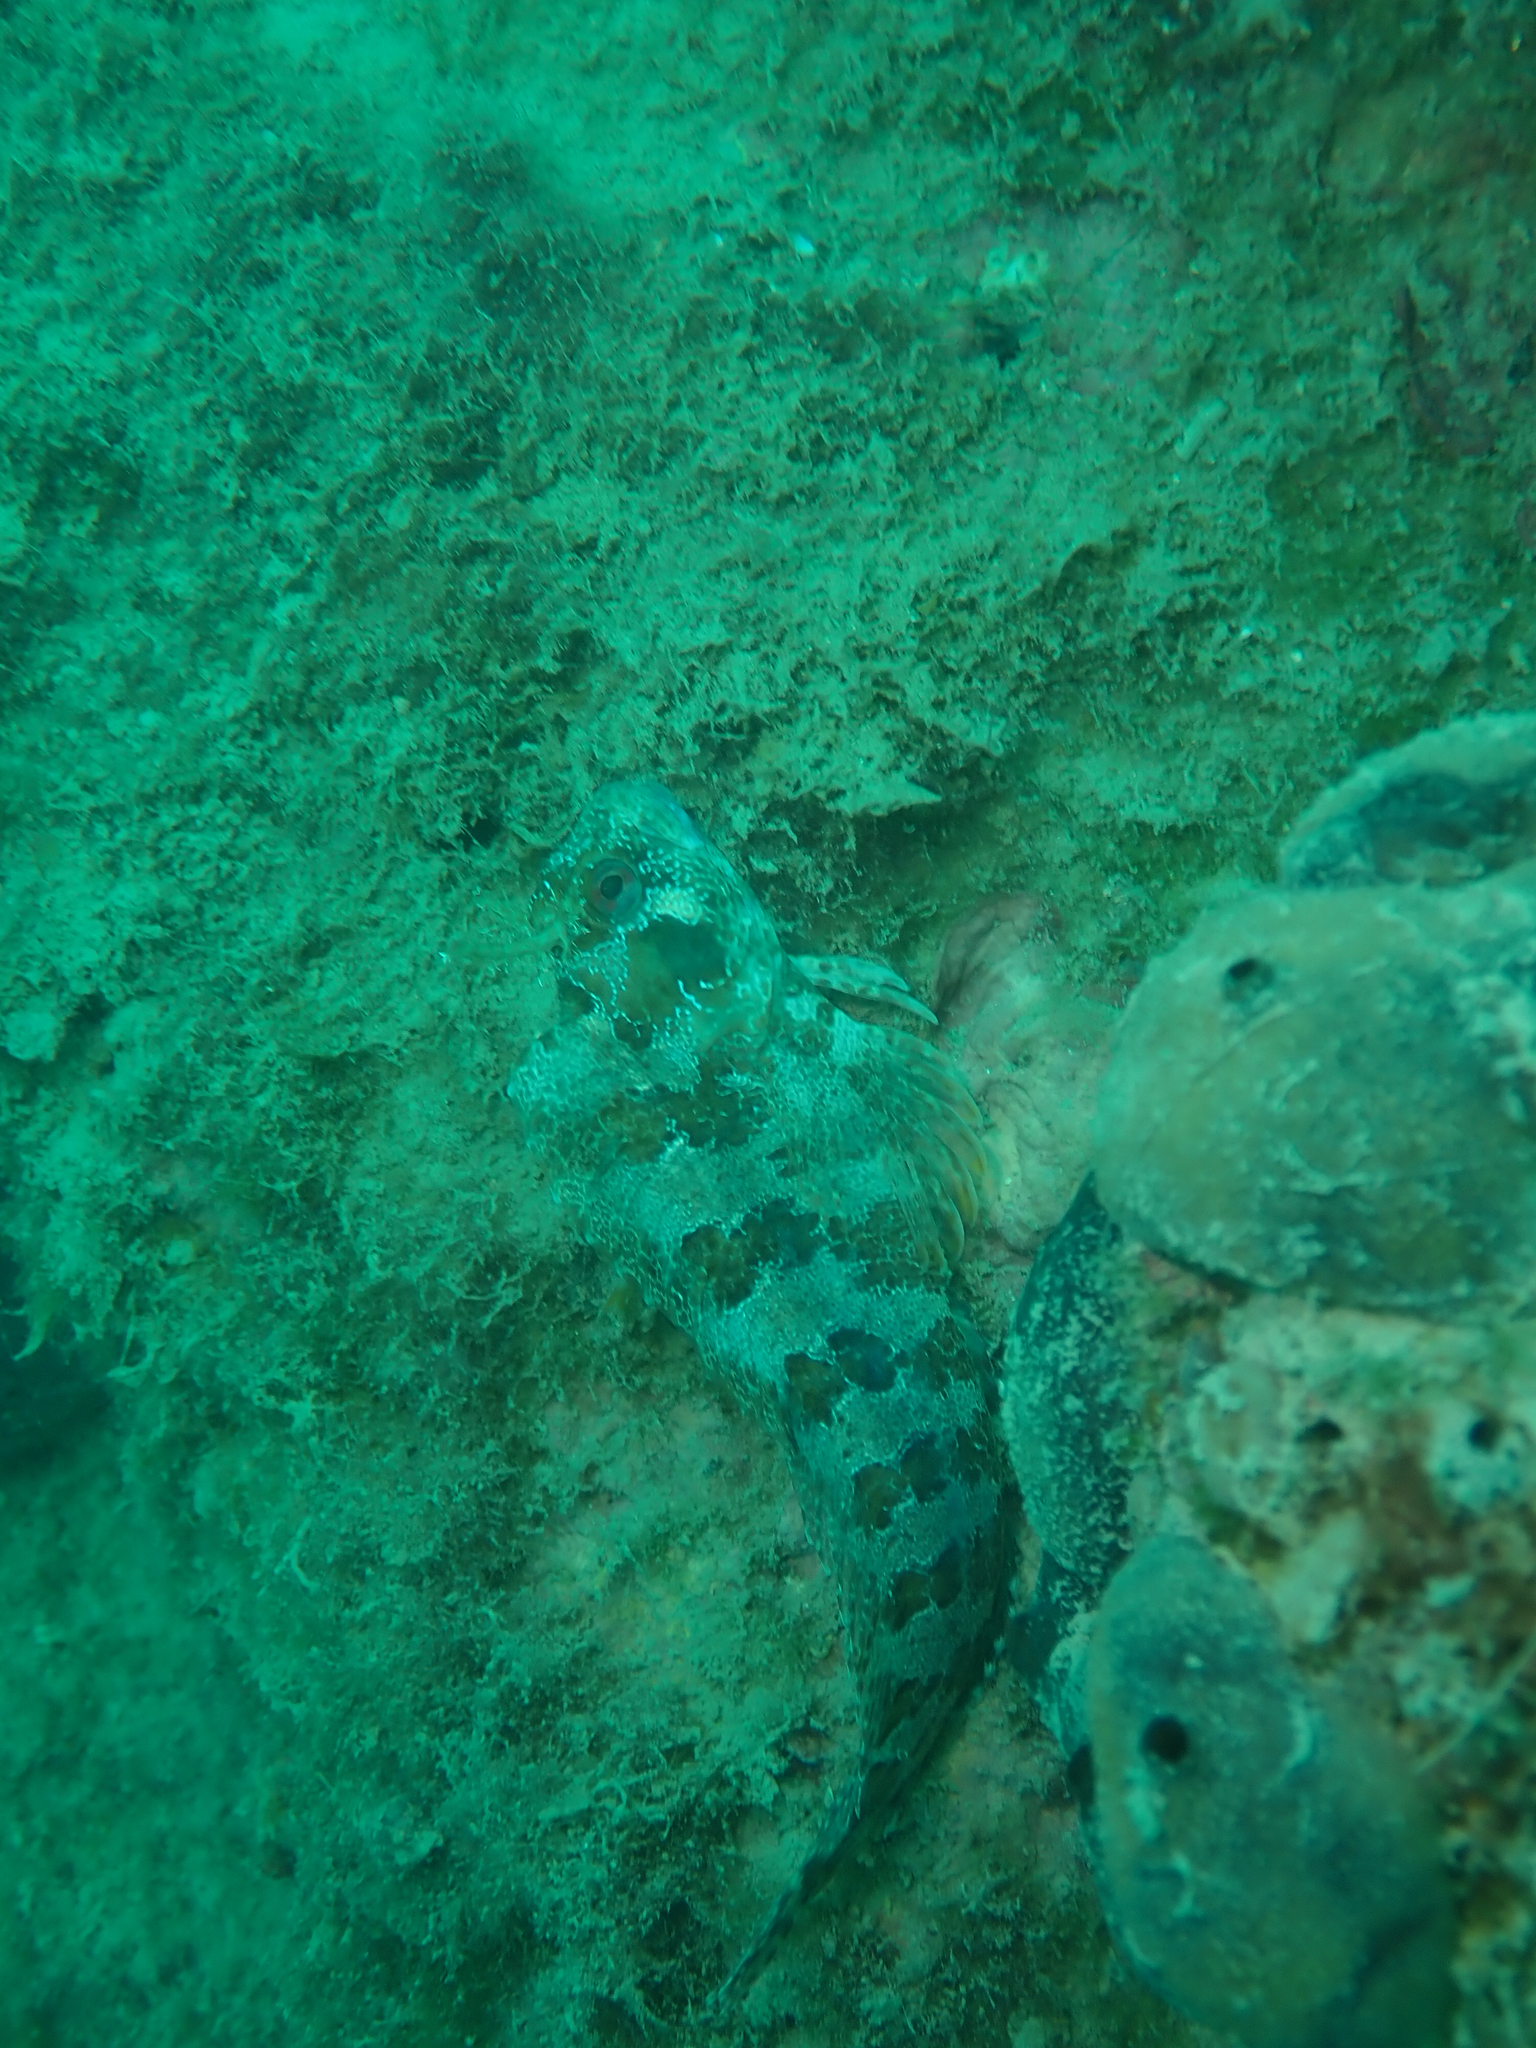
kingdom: Animalia
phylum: Chordata
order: Perciformes
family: Blenniidae
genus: Parablennius
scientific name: Parablennius gattorugine
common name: Tompot blenny
